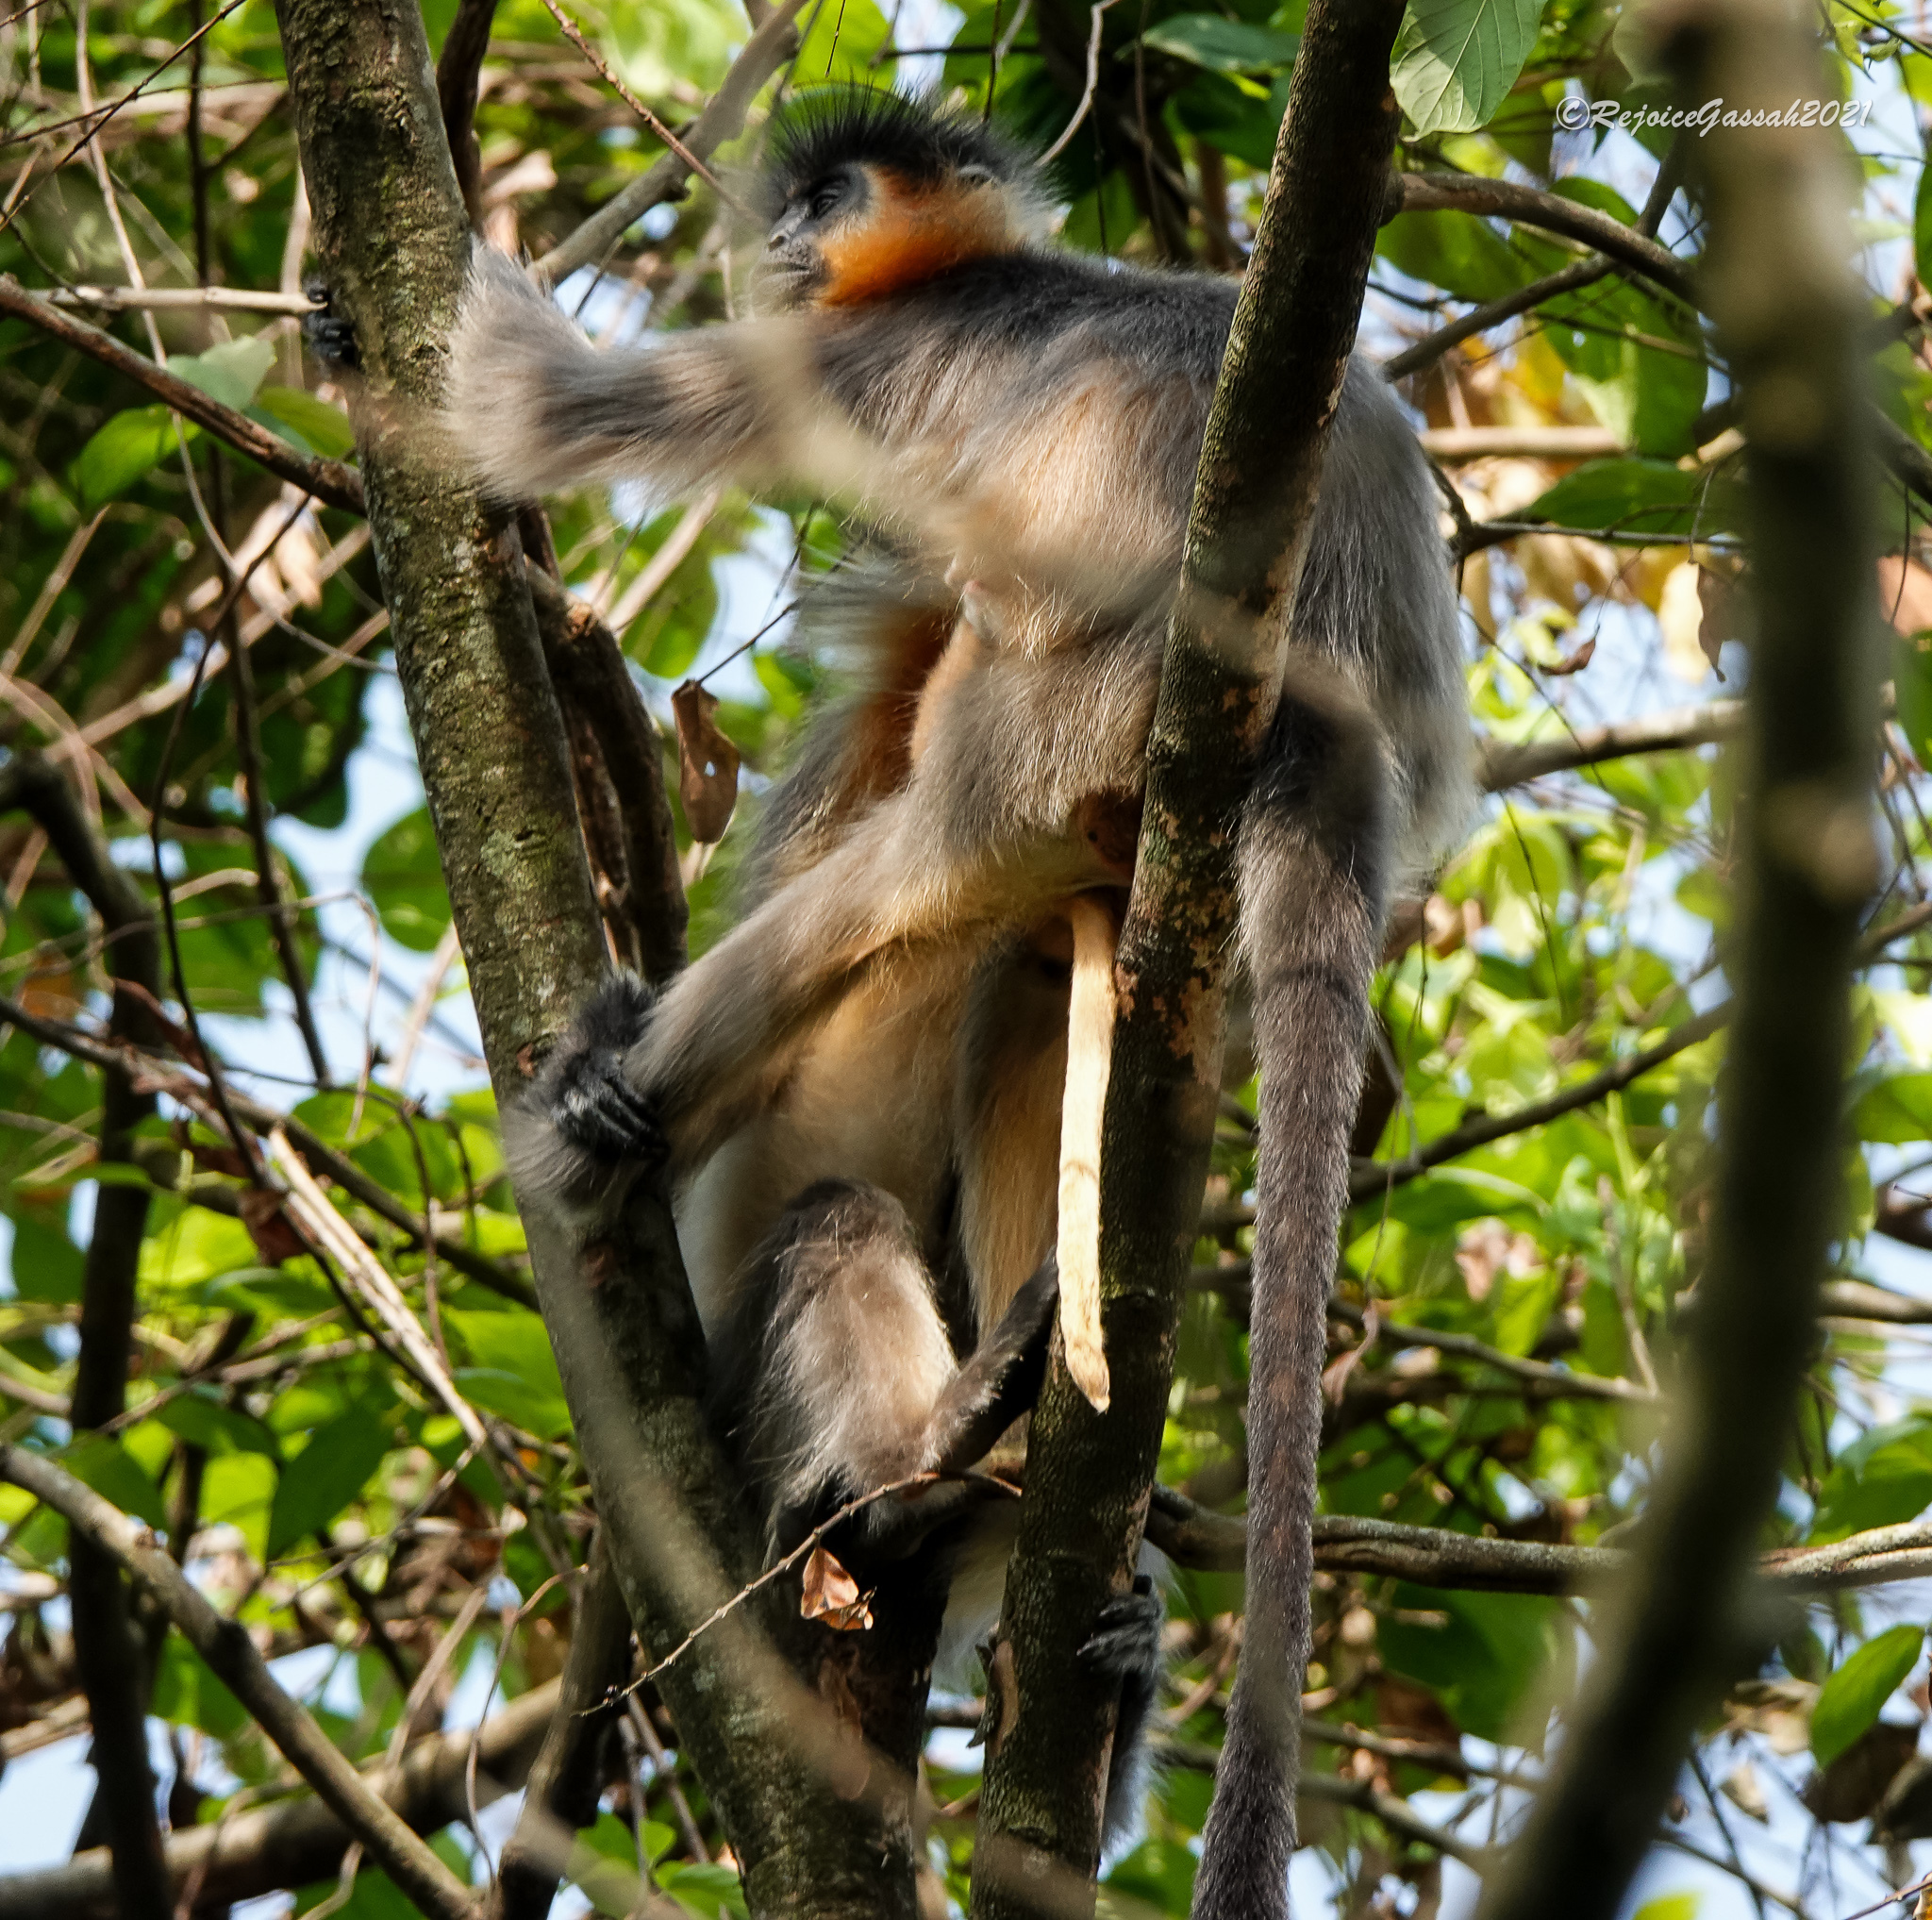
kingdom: Animalia
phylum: Chordata
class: Mammalia
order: Primates
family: Cercopithecidae
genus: Trachypithecus
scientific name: Trachypithecus pileatus
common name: Capped langur
